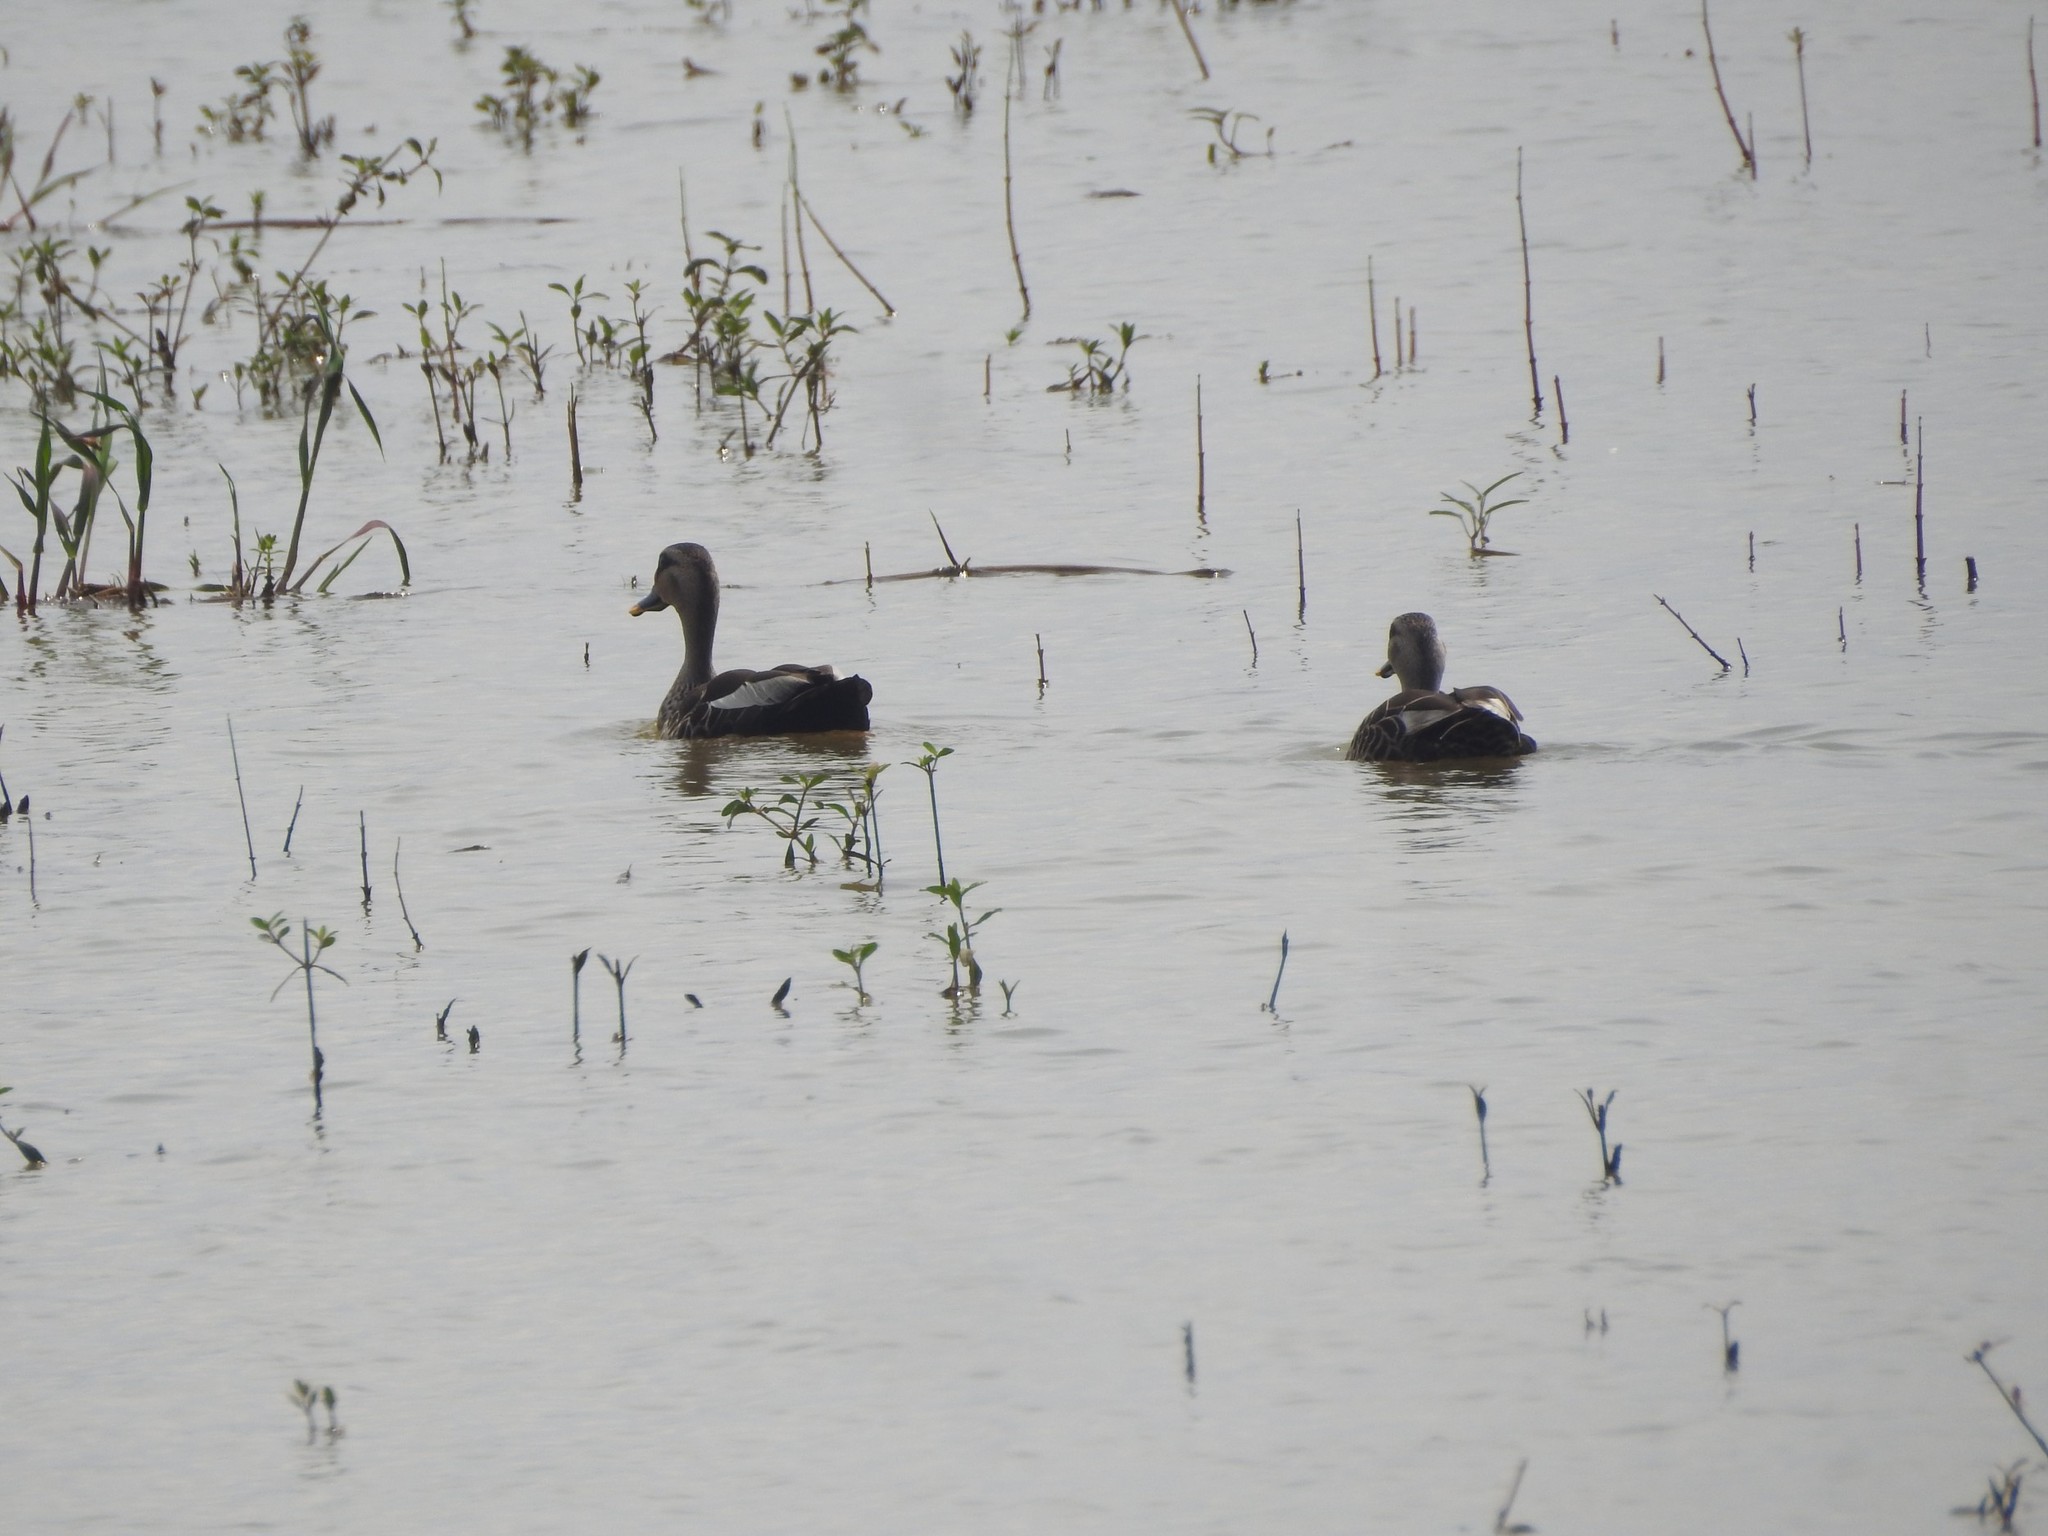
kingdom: Animalia
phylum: Chordata
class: Aves
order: Anseriformes
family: Anatidae
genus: Anas
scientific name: Anas poecilorhyncha
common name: Indian spot-billed duck
